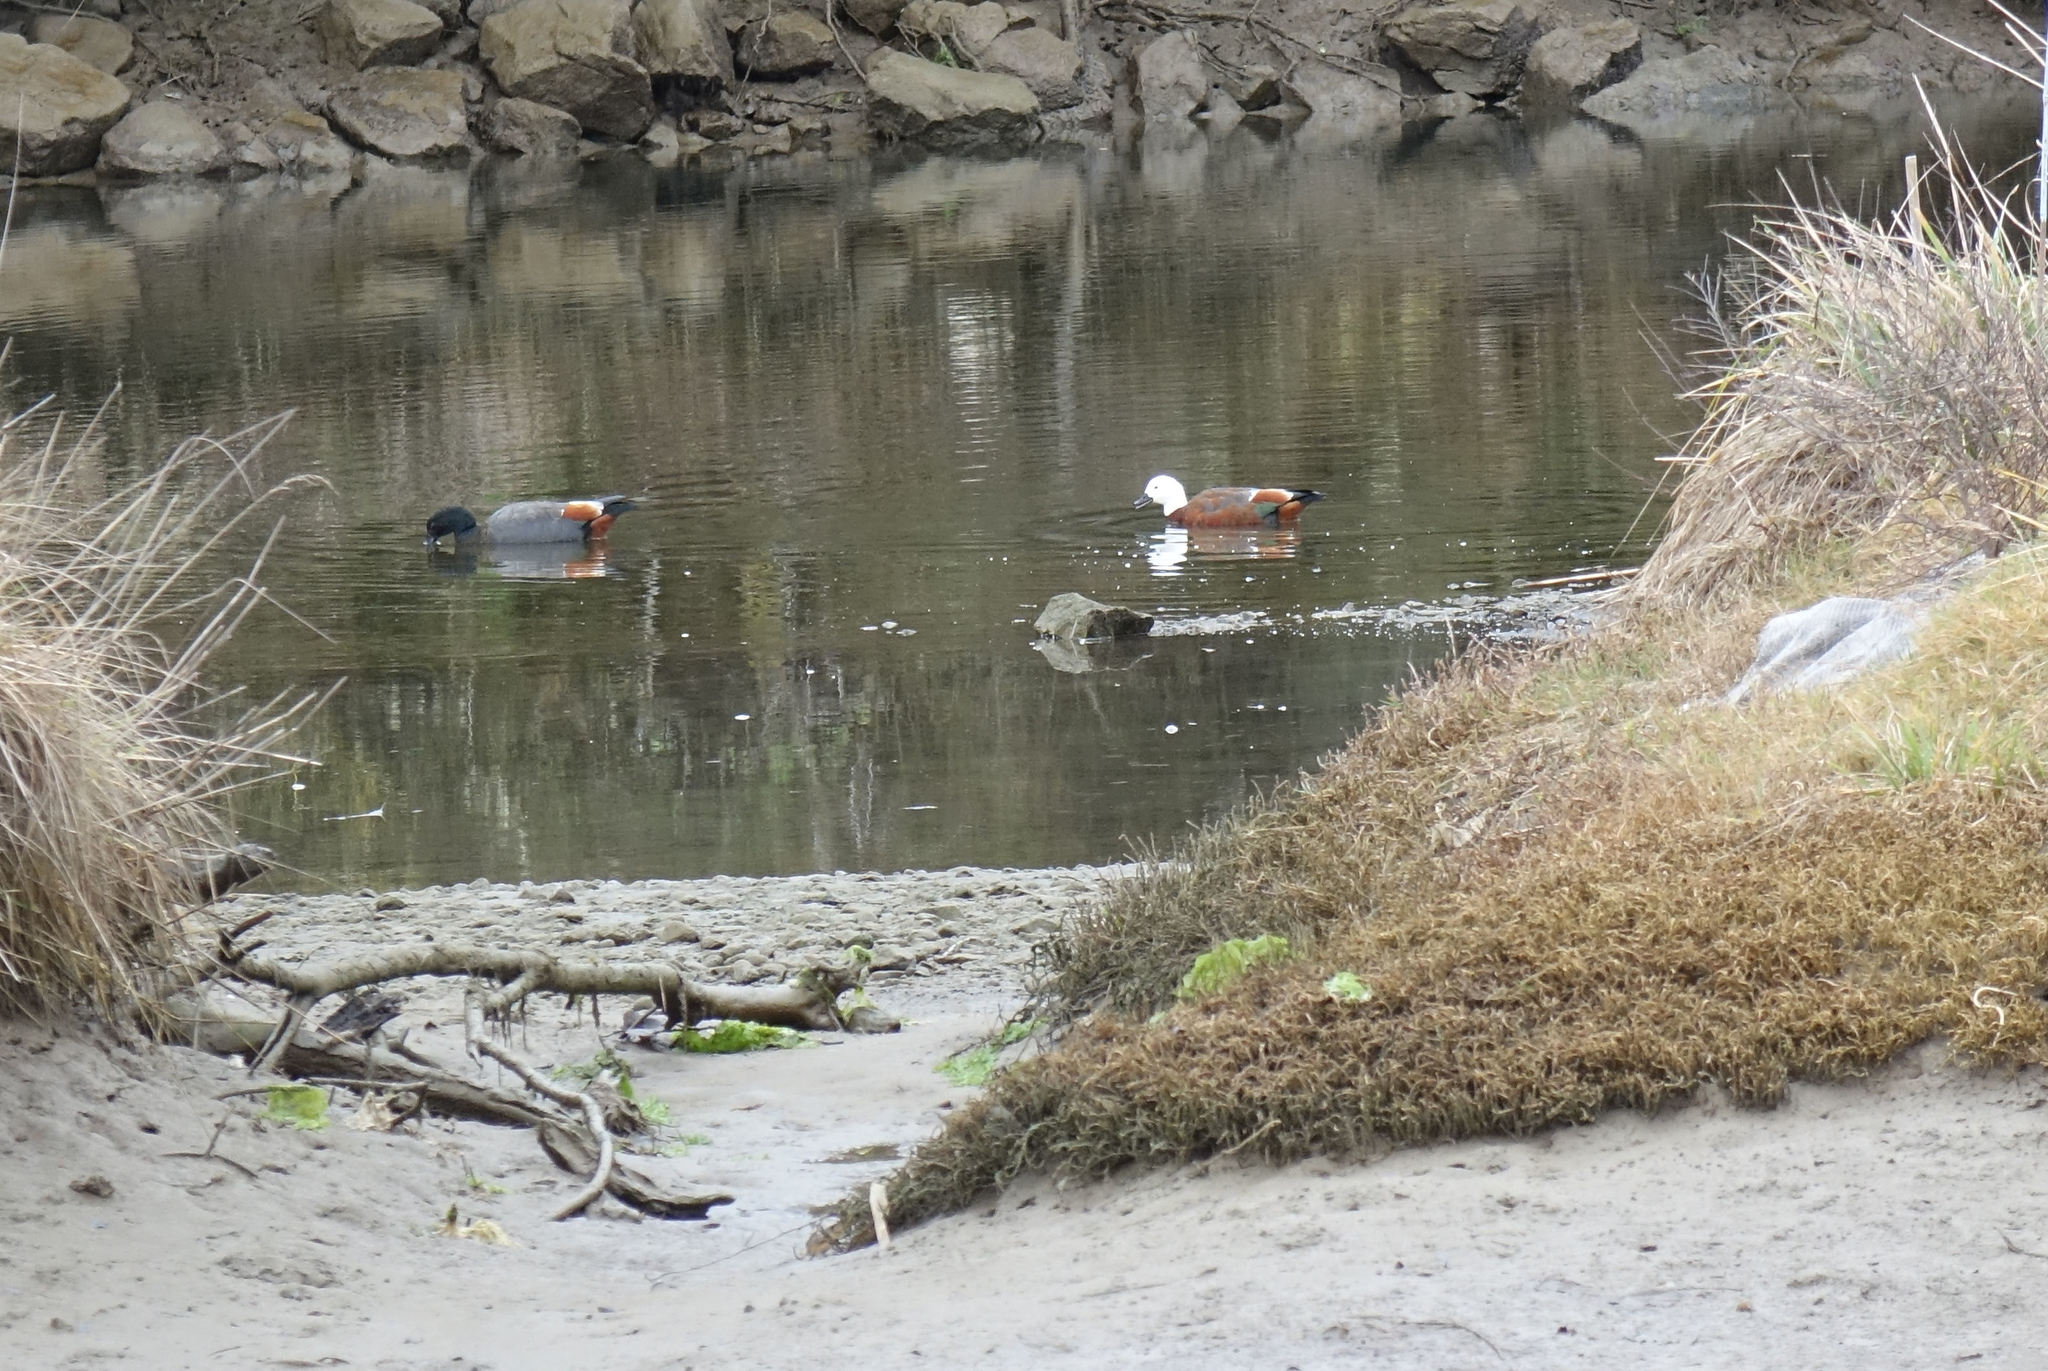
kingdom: Animalia
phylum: Chordata
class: Aves
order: Anseriformes
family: Anatidae
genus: Tadorna
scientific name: Tadorna variegata
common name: Paradise shelduck
